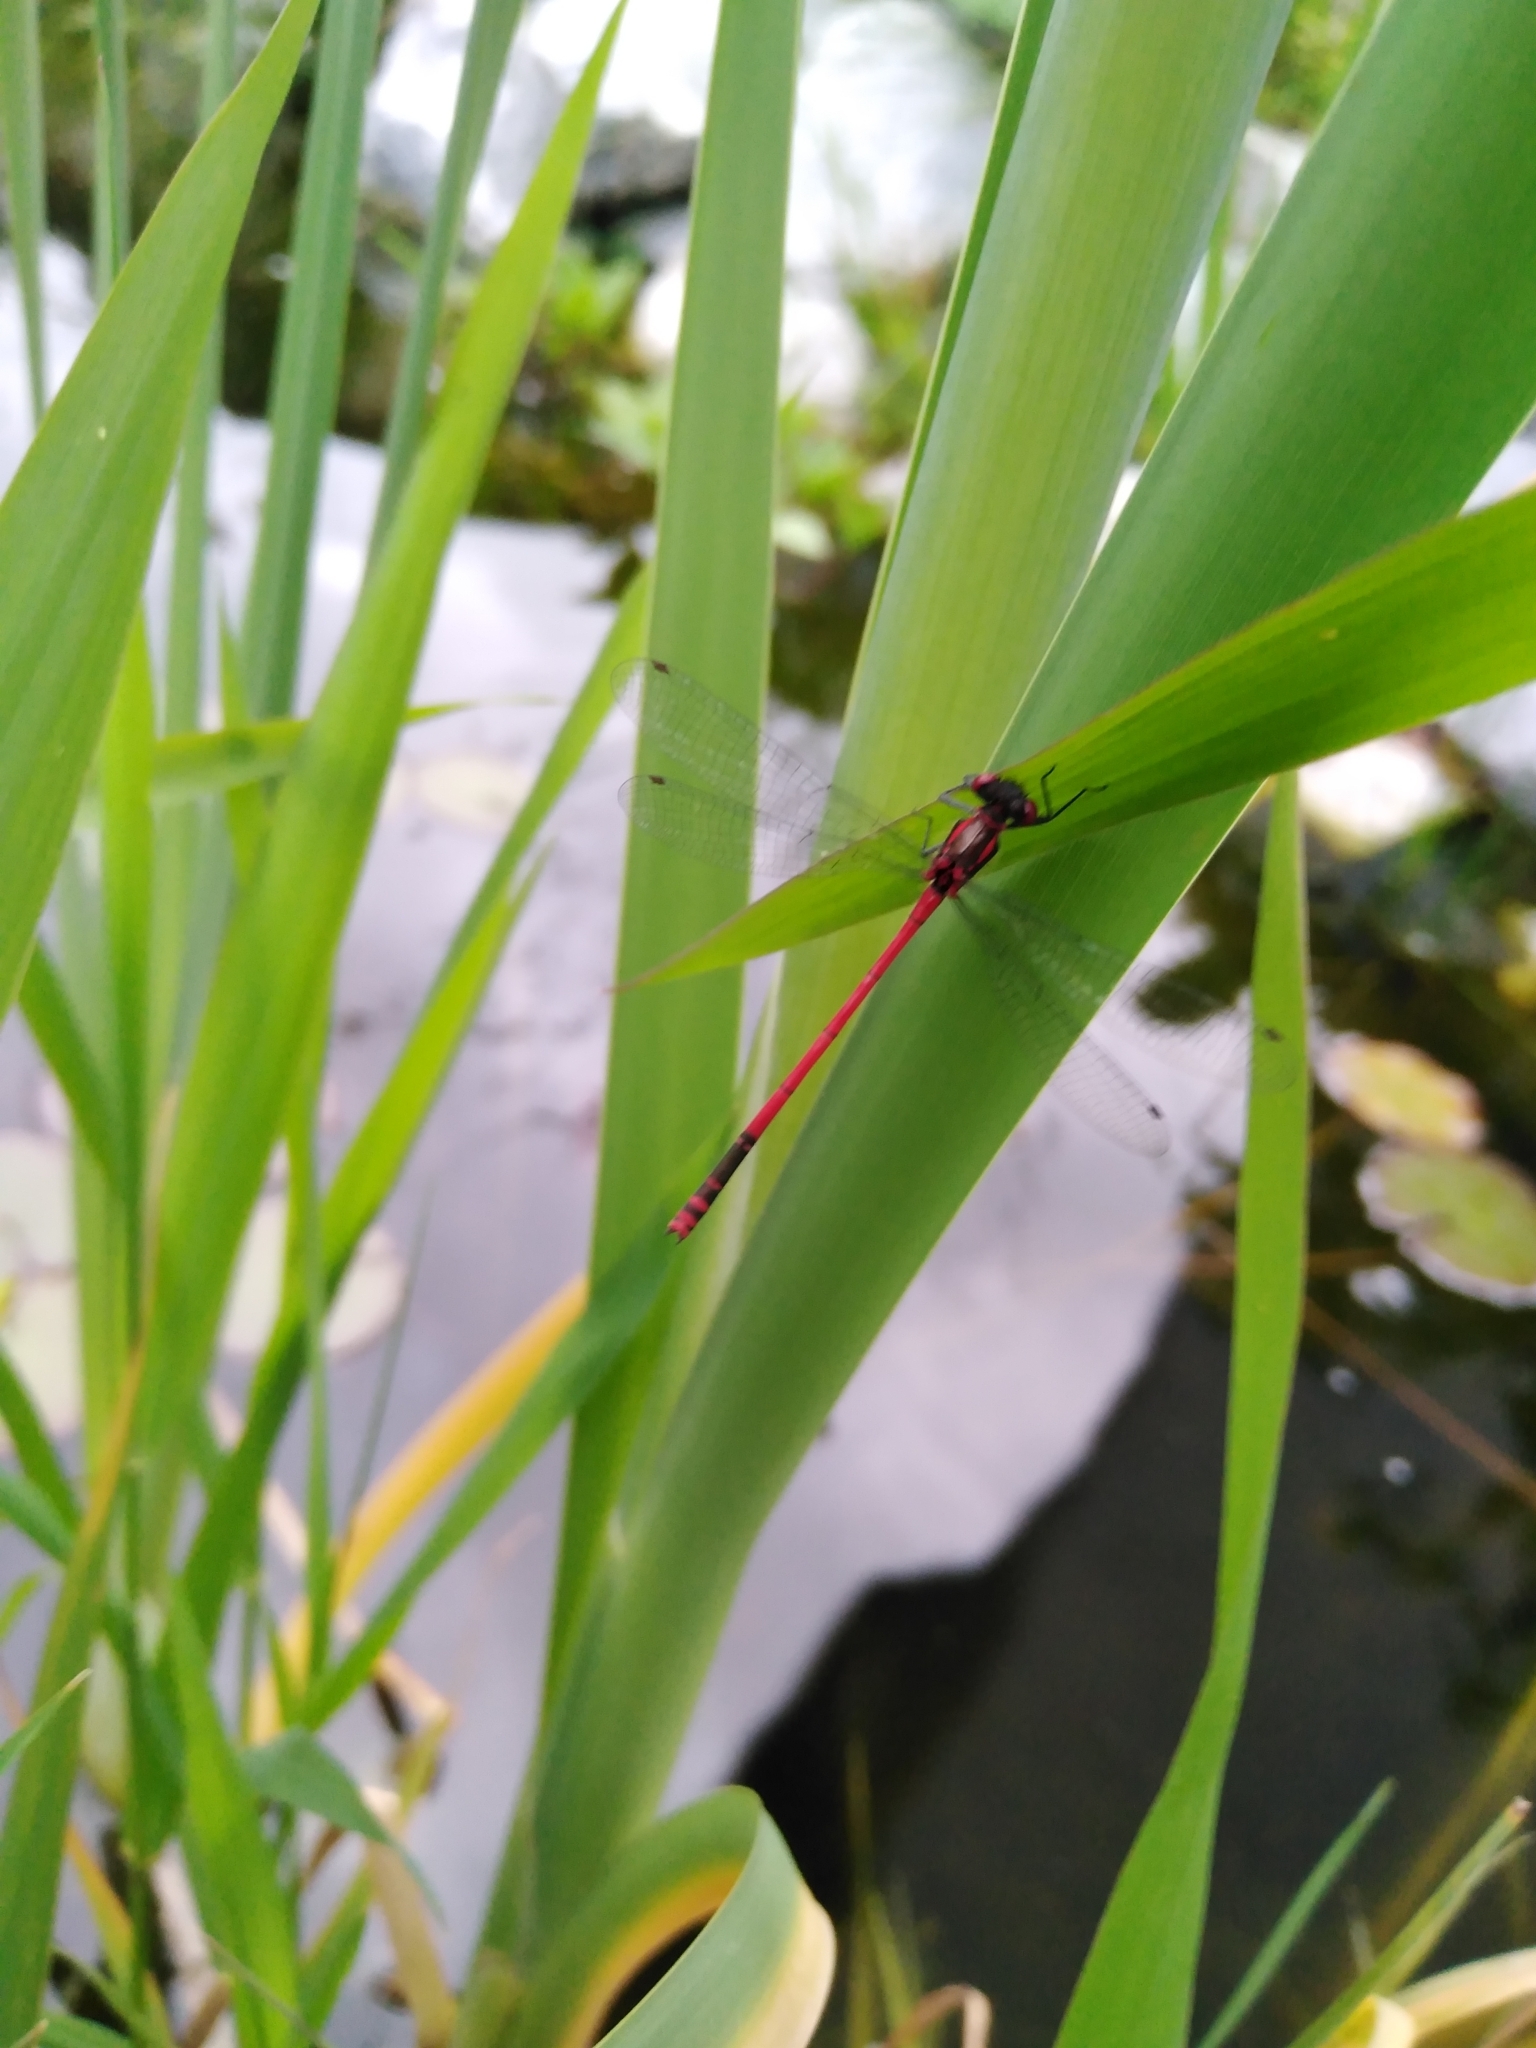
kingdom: Animalia
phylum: Arthropoda
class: Insecta
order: Odonata
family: Coenagrionidae
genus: Pyrrhosoma
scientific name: Pyrrhosoma nymphula
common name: Large red damsel
